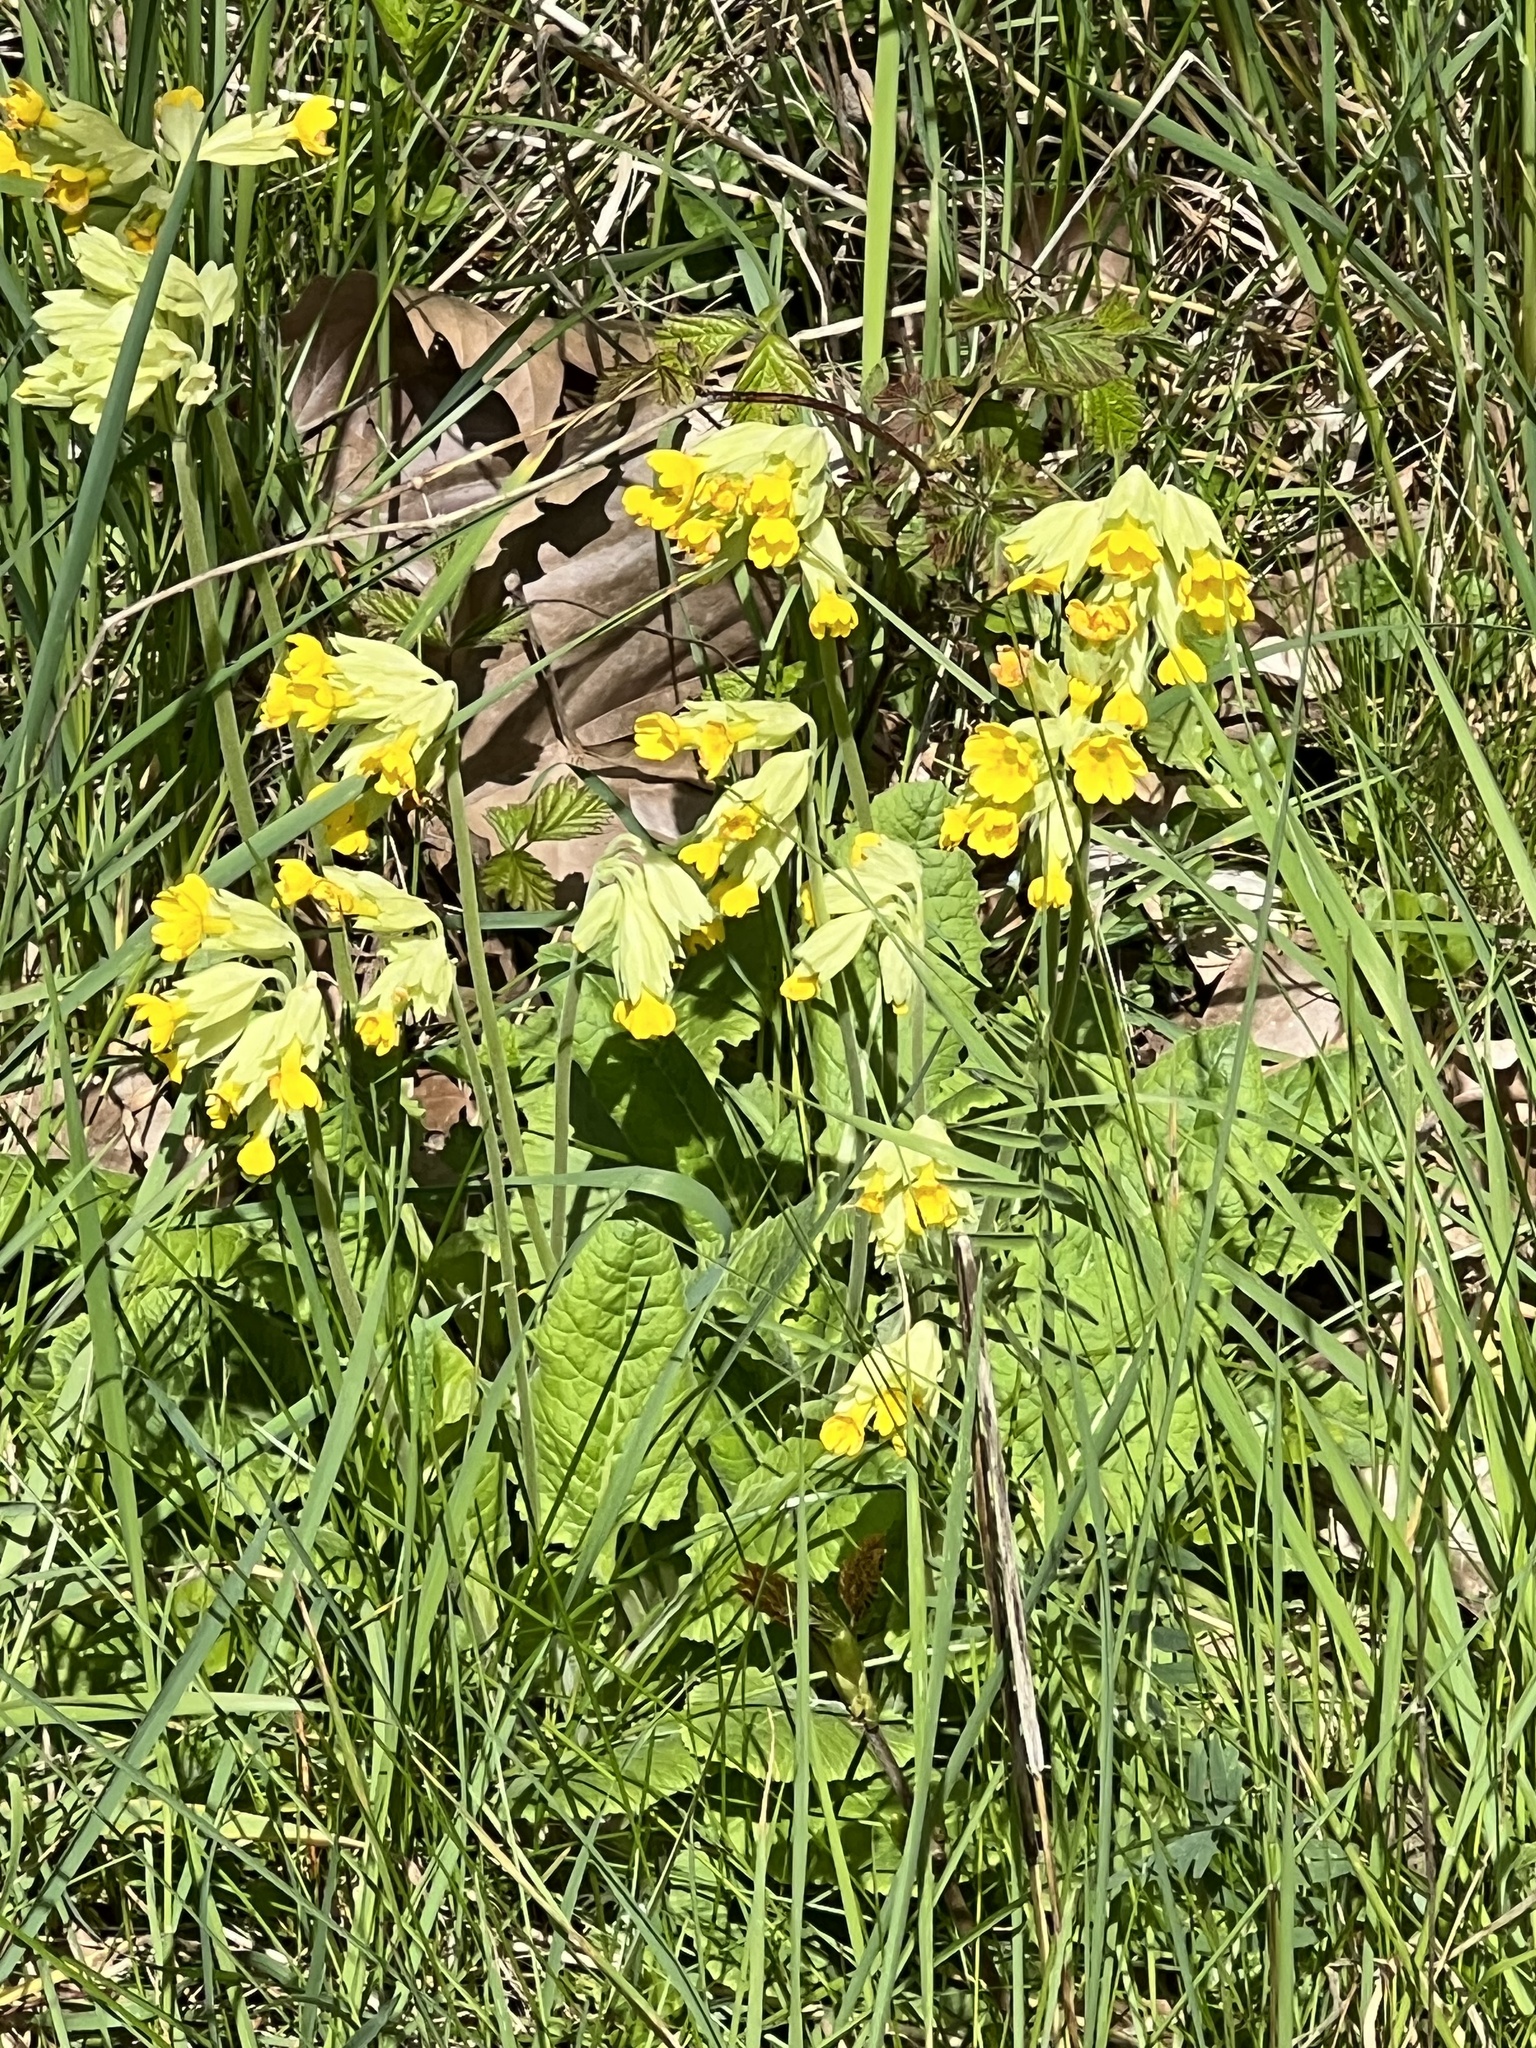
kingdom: Plantae
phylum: Tracheophyta
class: Magnoliopsida
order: Ericales
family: Primulaceae
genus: Primula
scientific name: Primula veris
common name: Cowslip
